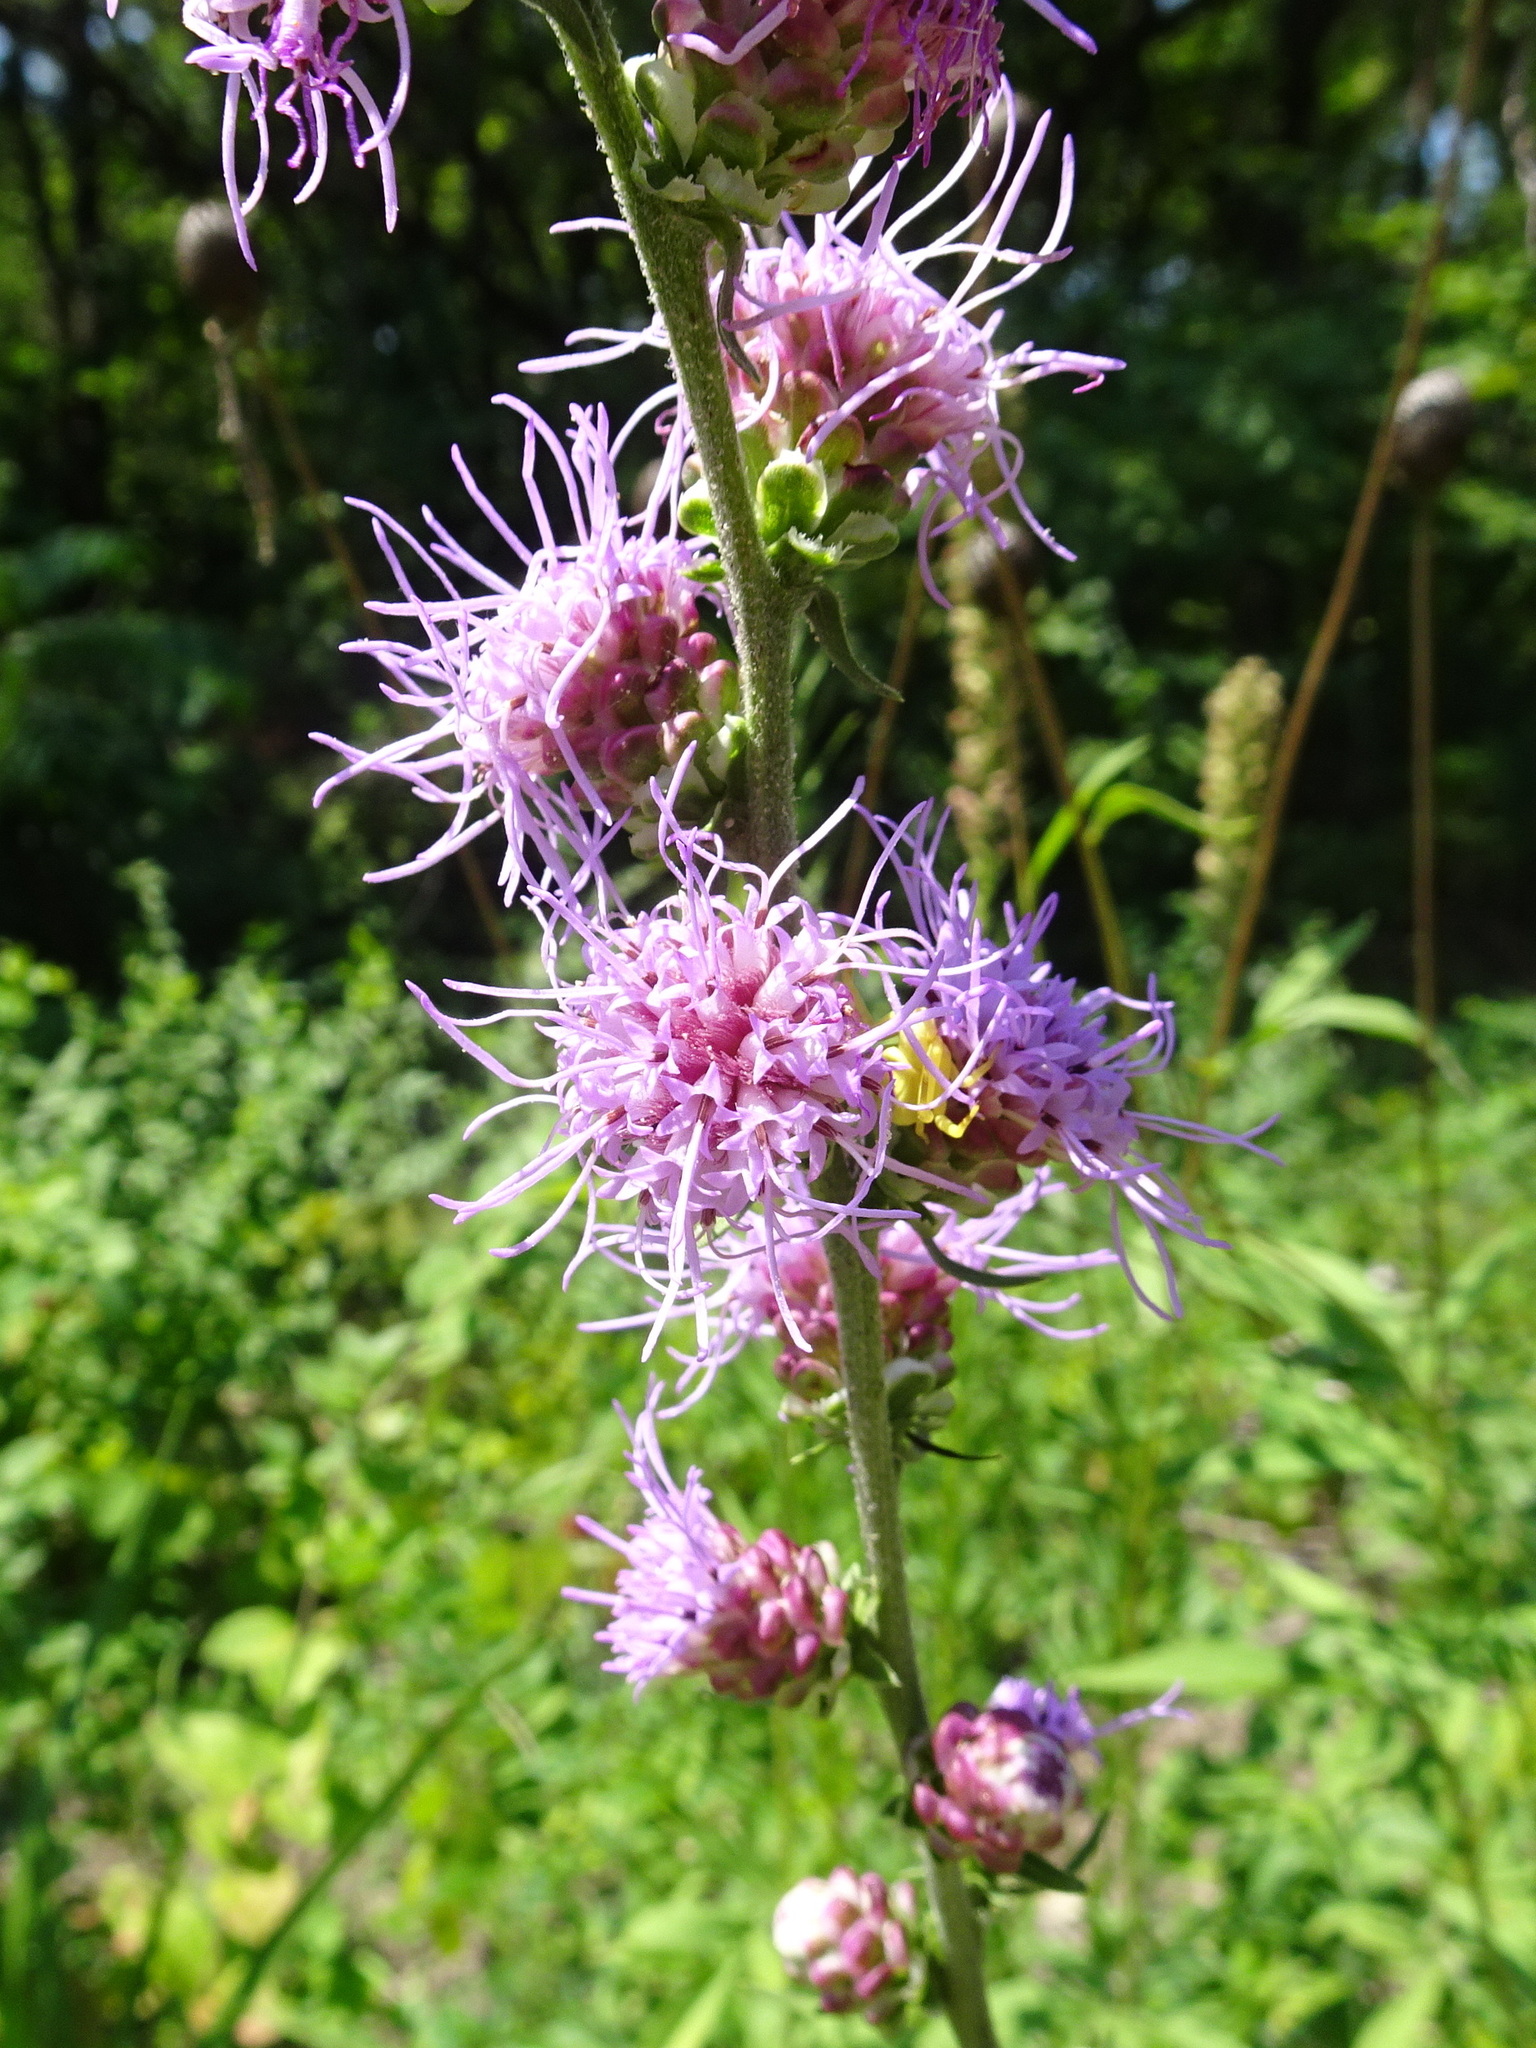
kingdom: Plantae
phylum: Tracheophyta
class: Magnoliopsida
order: Asterales
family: Asteraceae
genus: Liatris
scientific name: Liatris aspera
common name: Lacerate blazing-star
